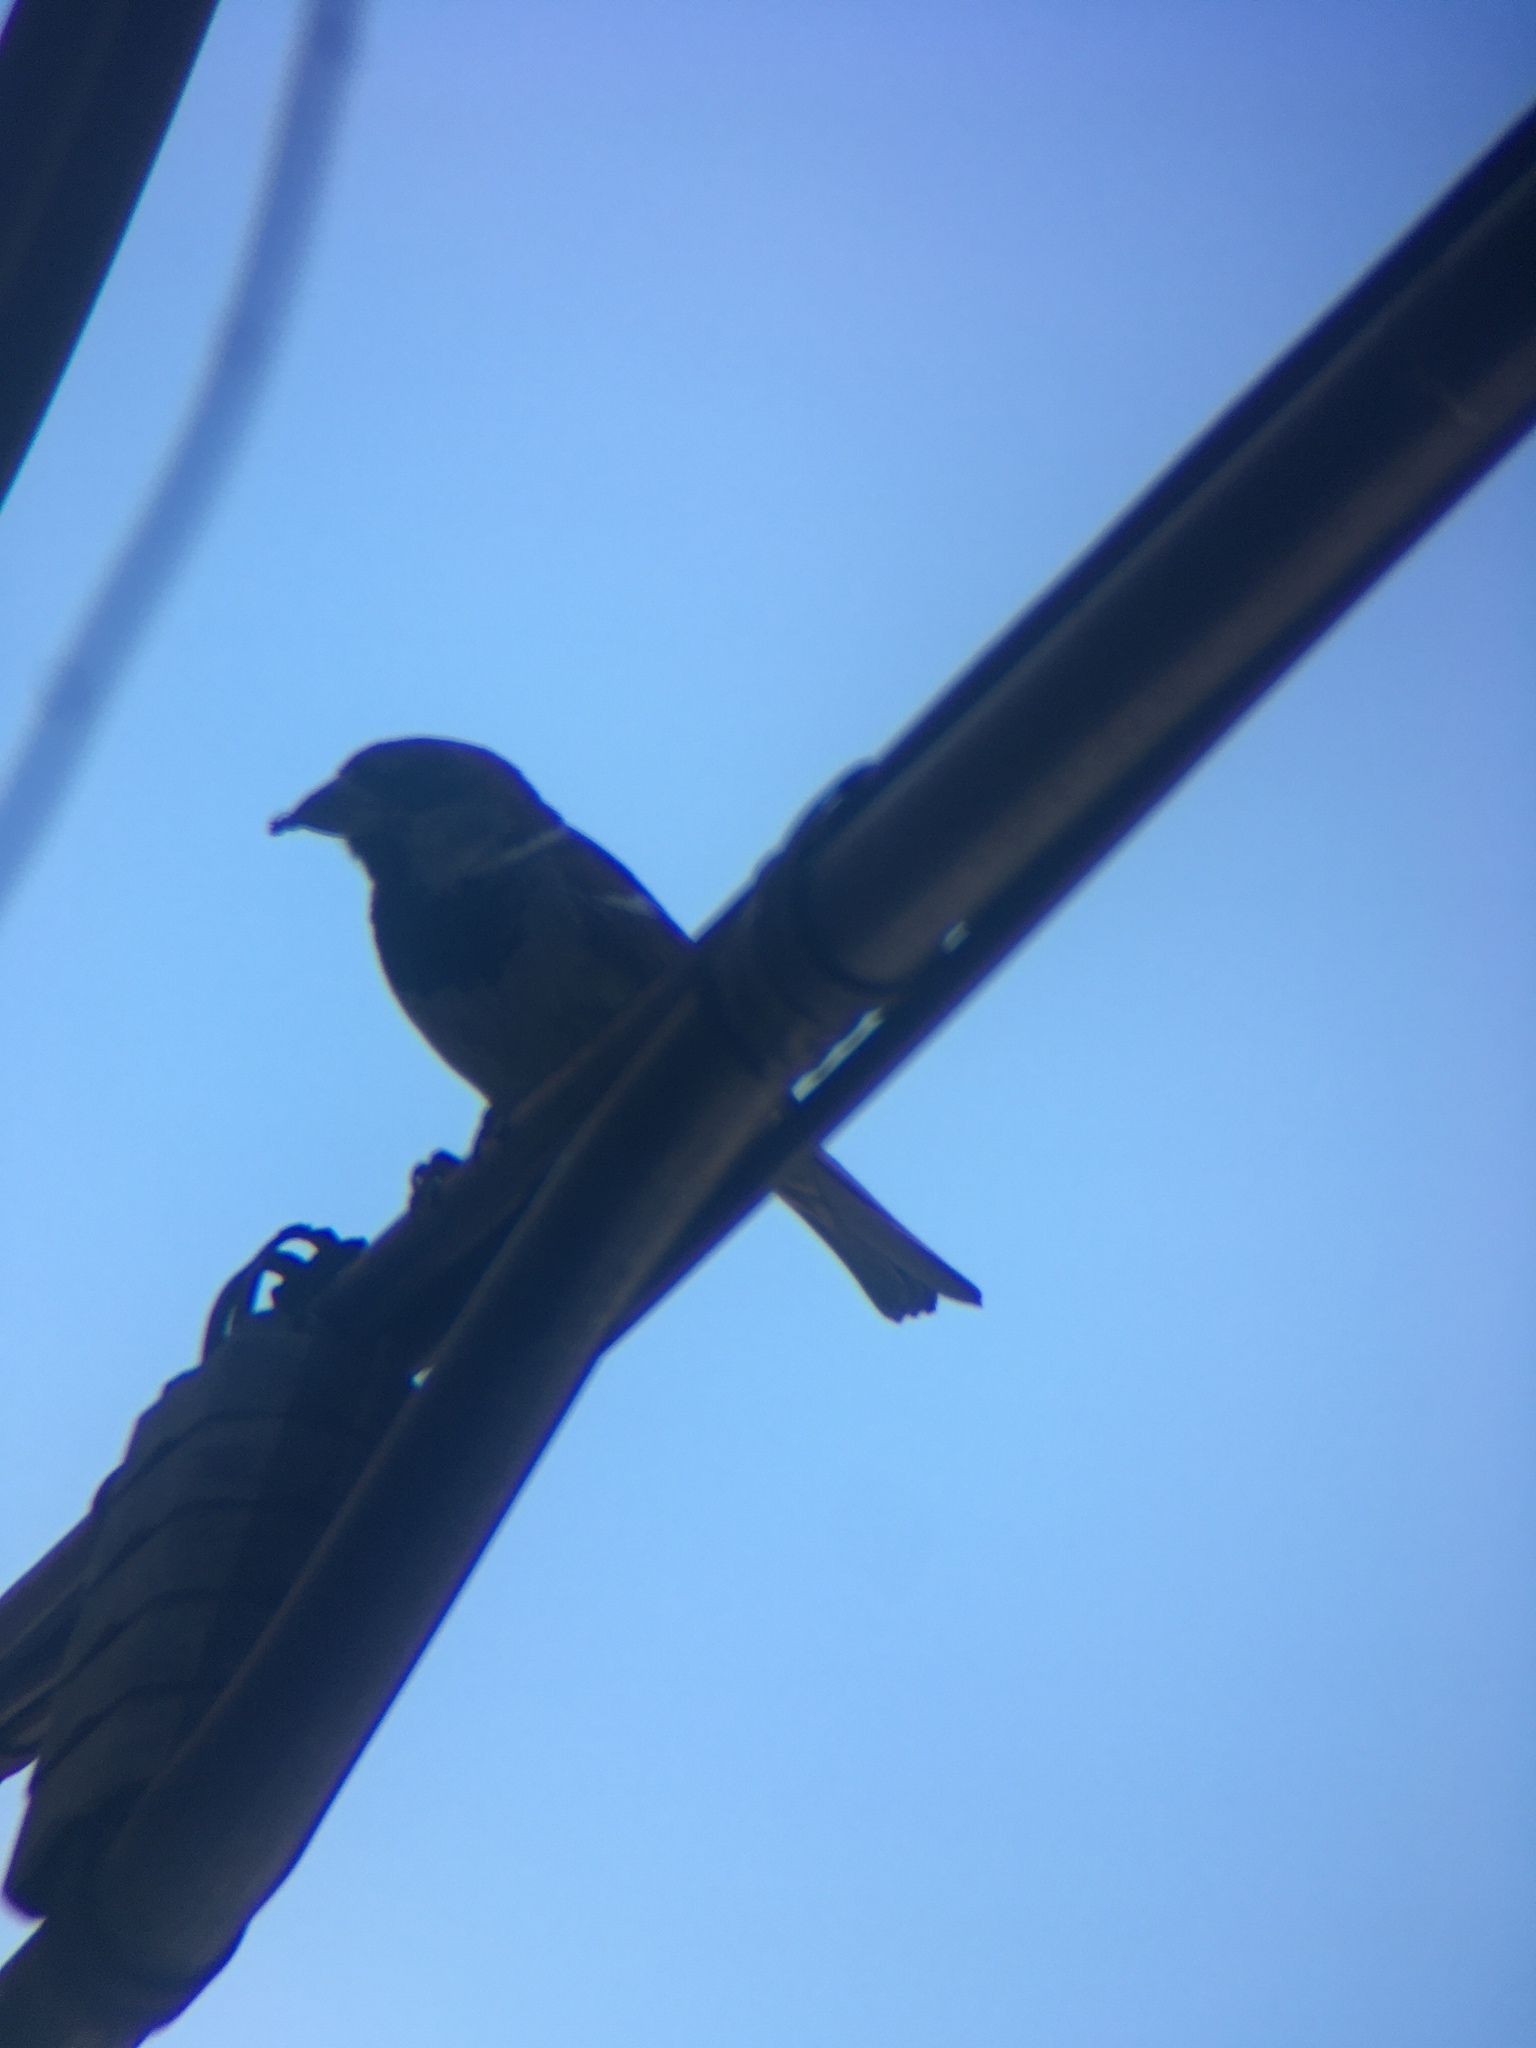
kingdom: Animalia
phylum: Chordata
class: Aves
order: Passeriformes
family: Passeridae
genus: Passer
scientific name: Passer domesticus
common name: House sparrow
